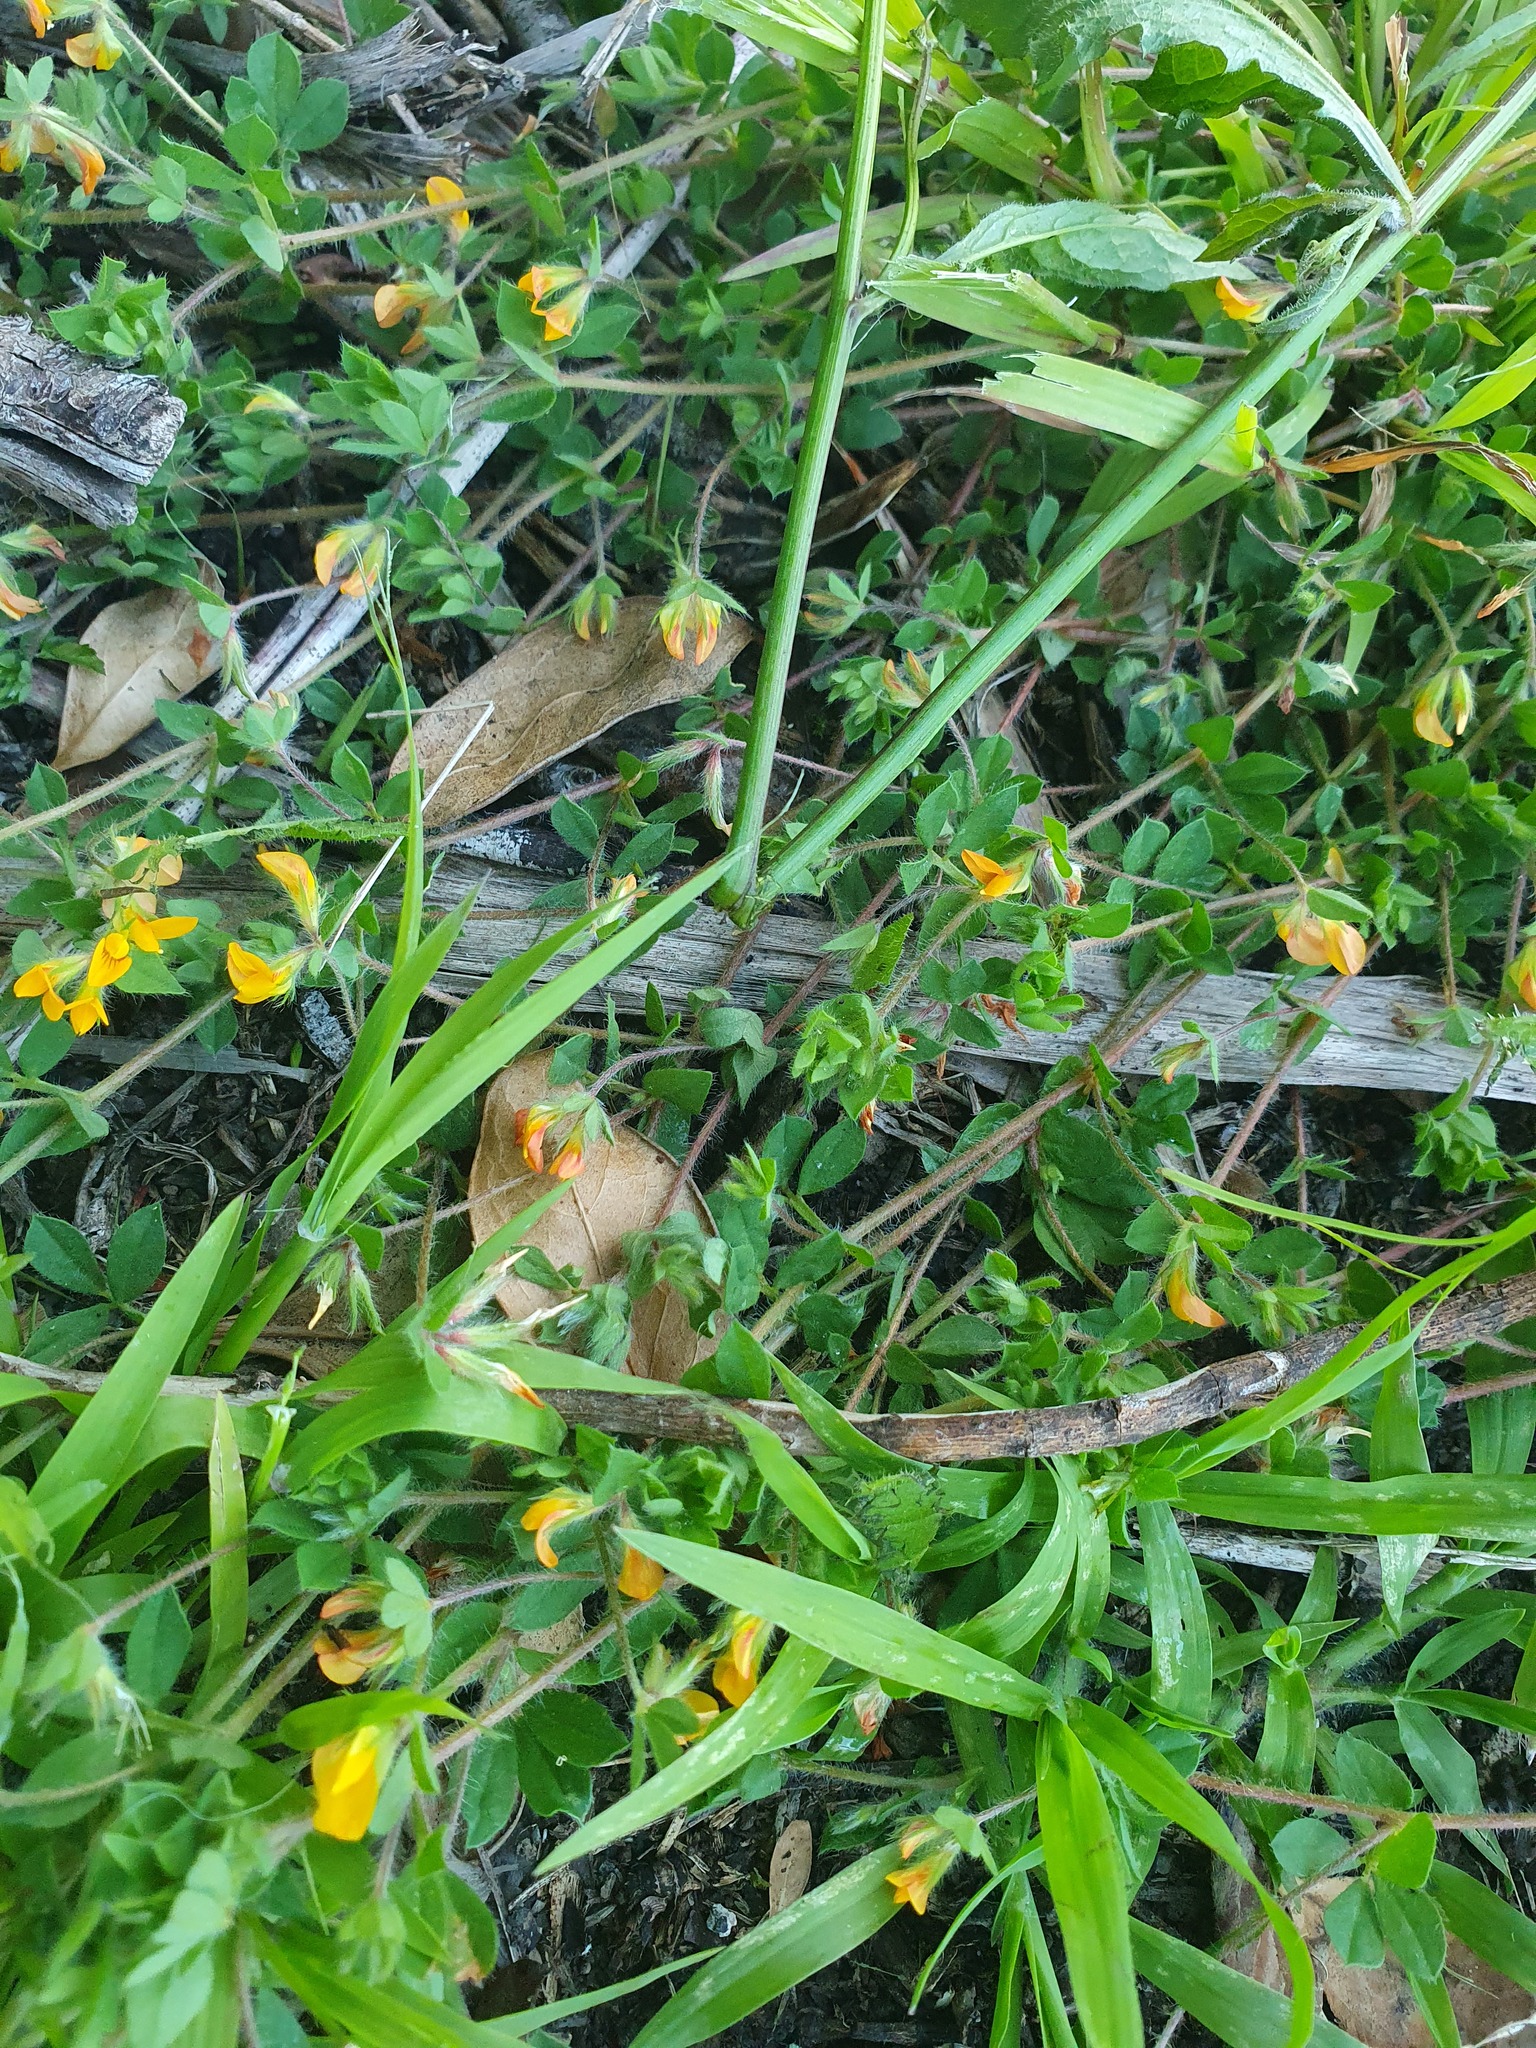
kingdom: Plantae
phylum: Tracheophyta
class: Magnoliopsida
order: Fabales
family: Fabaceae
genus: Lotus
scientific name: Lotus subbiflorus
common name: Hairy bird's-foot trefoil
